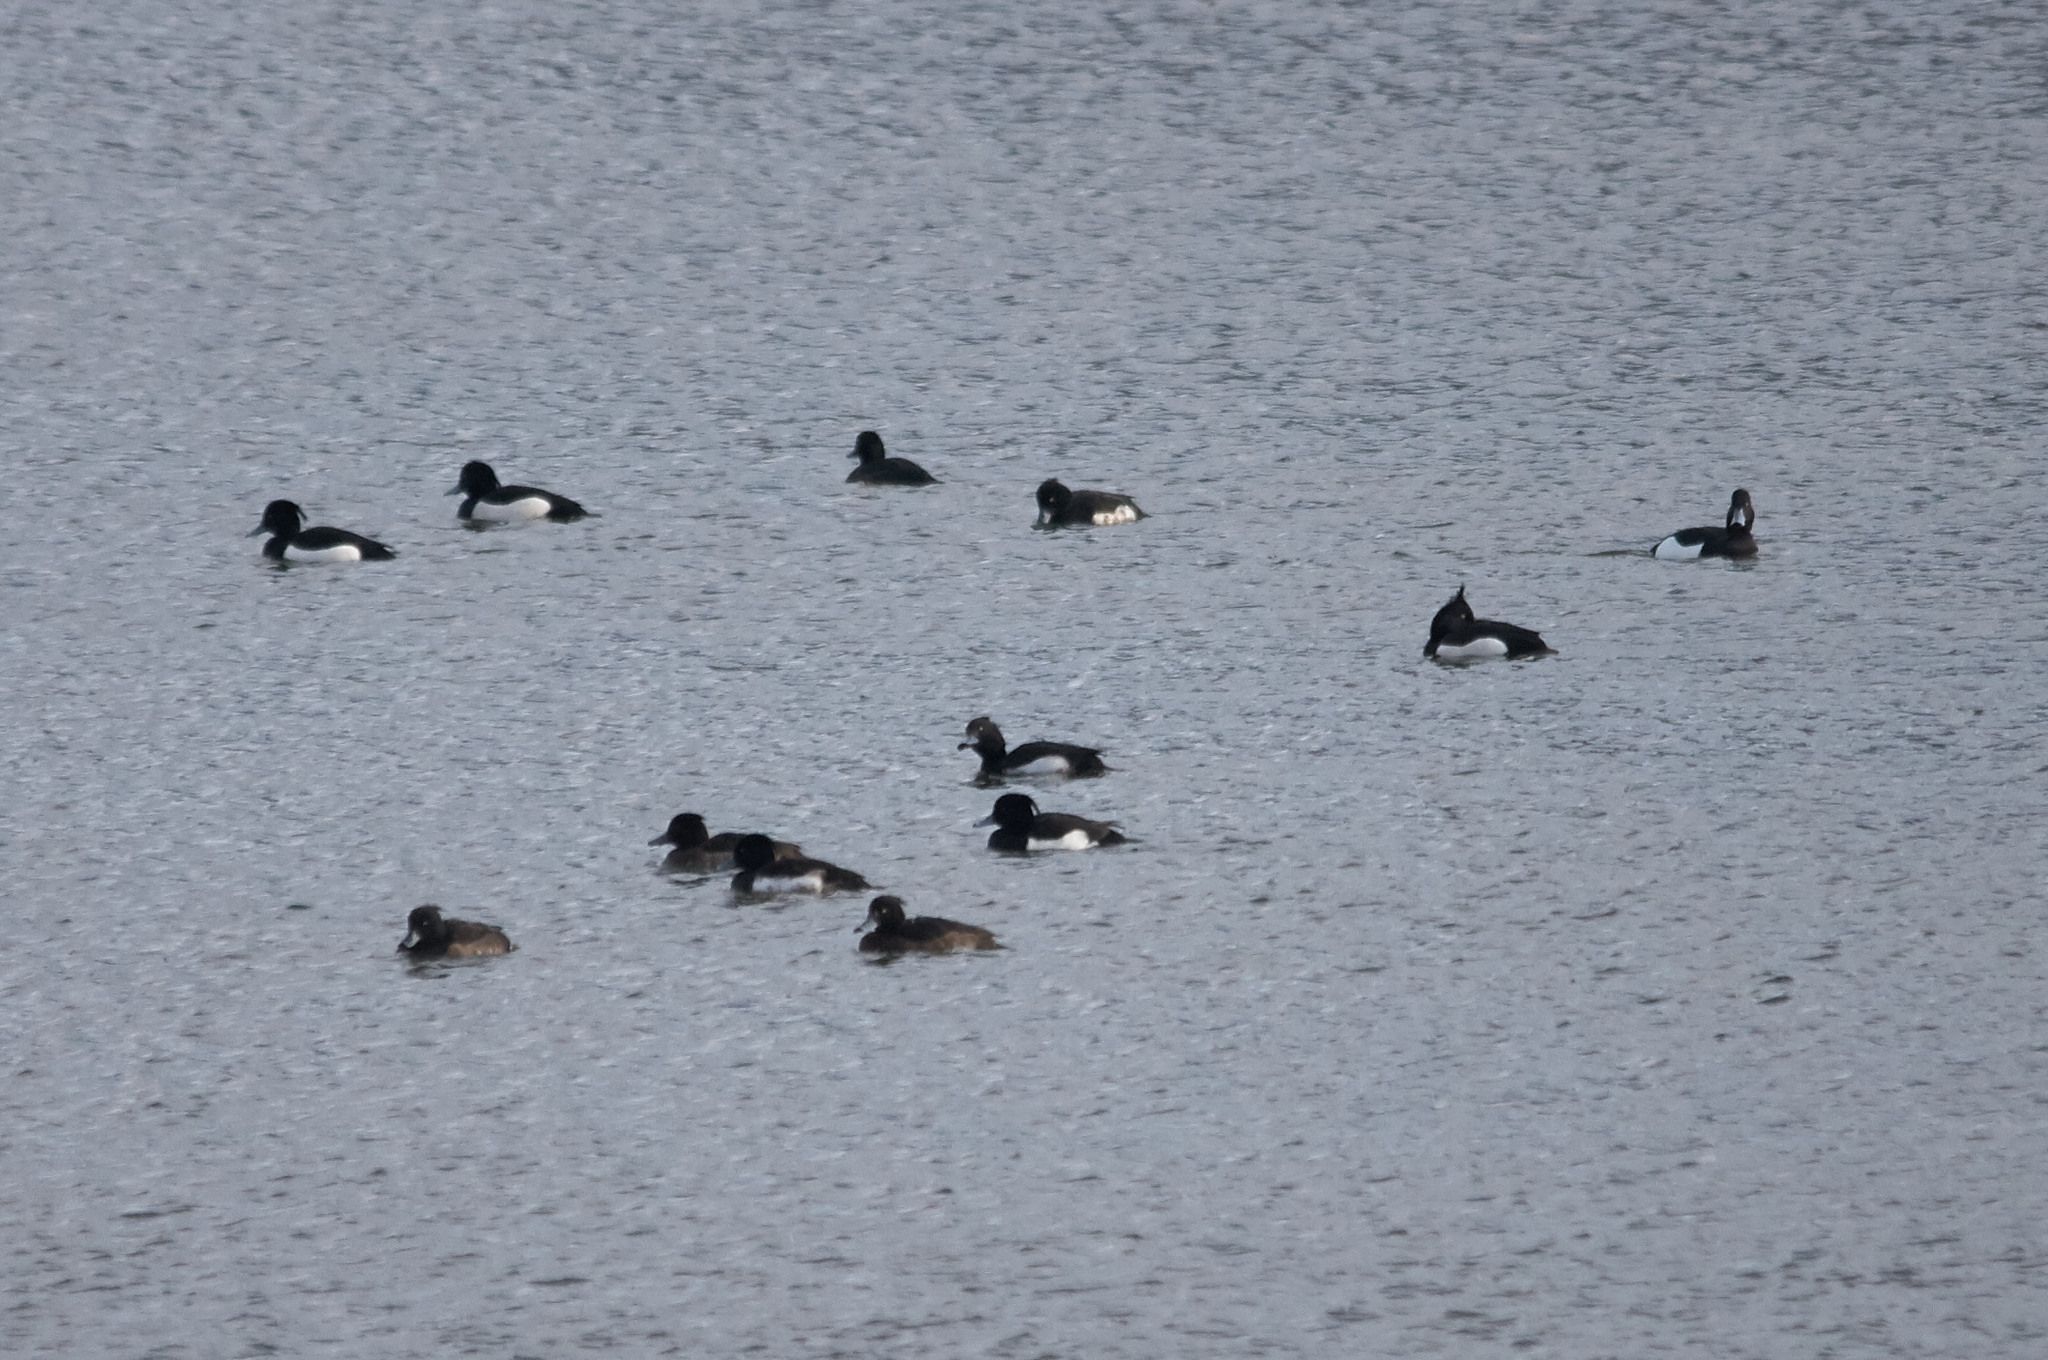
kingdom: Animalia
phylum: Chordata
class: Aves
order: Anseriformes
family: Anatidae
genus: Aythya
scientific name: Aythya fuligula
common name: Tufted duck
